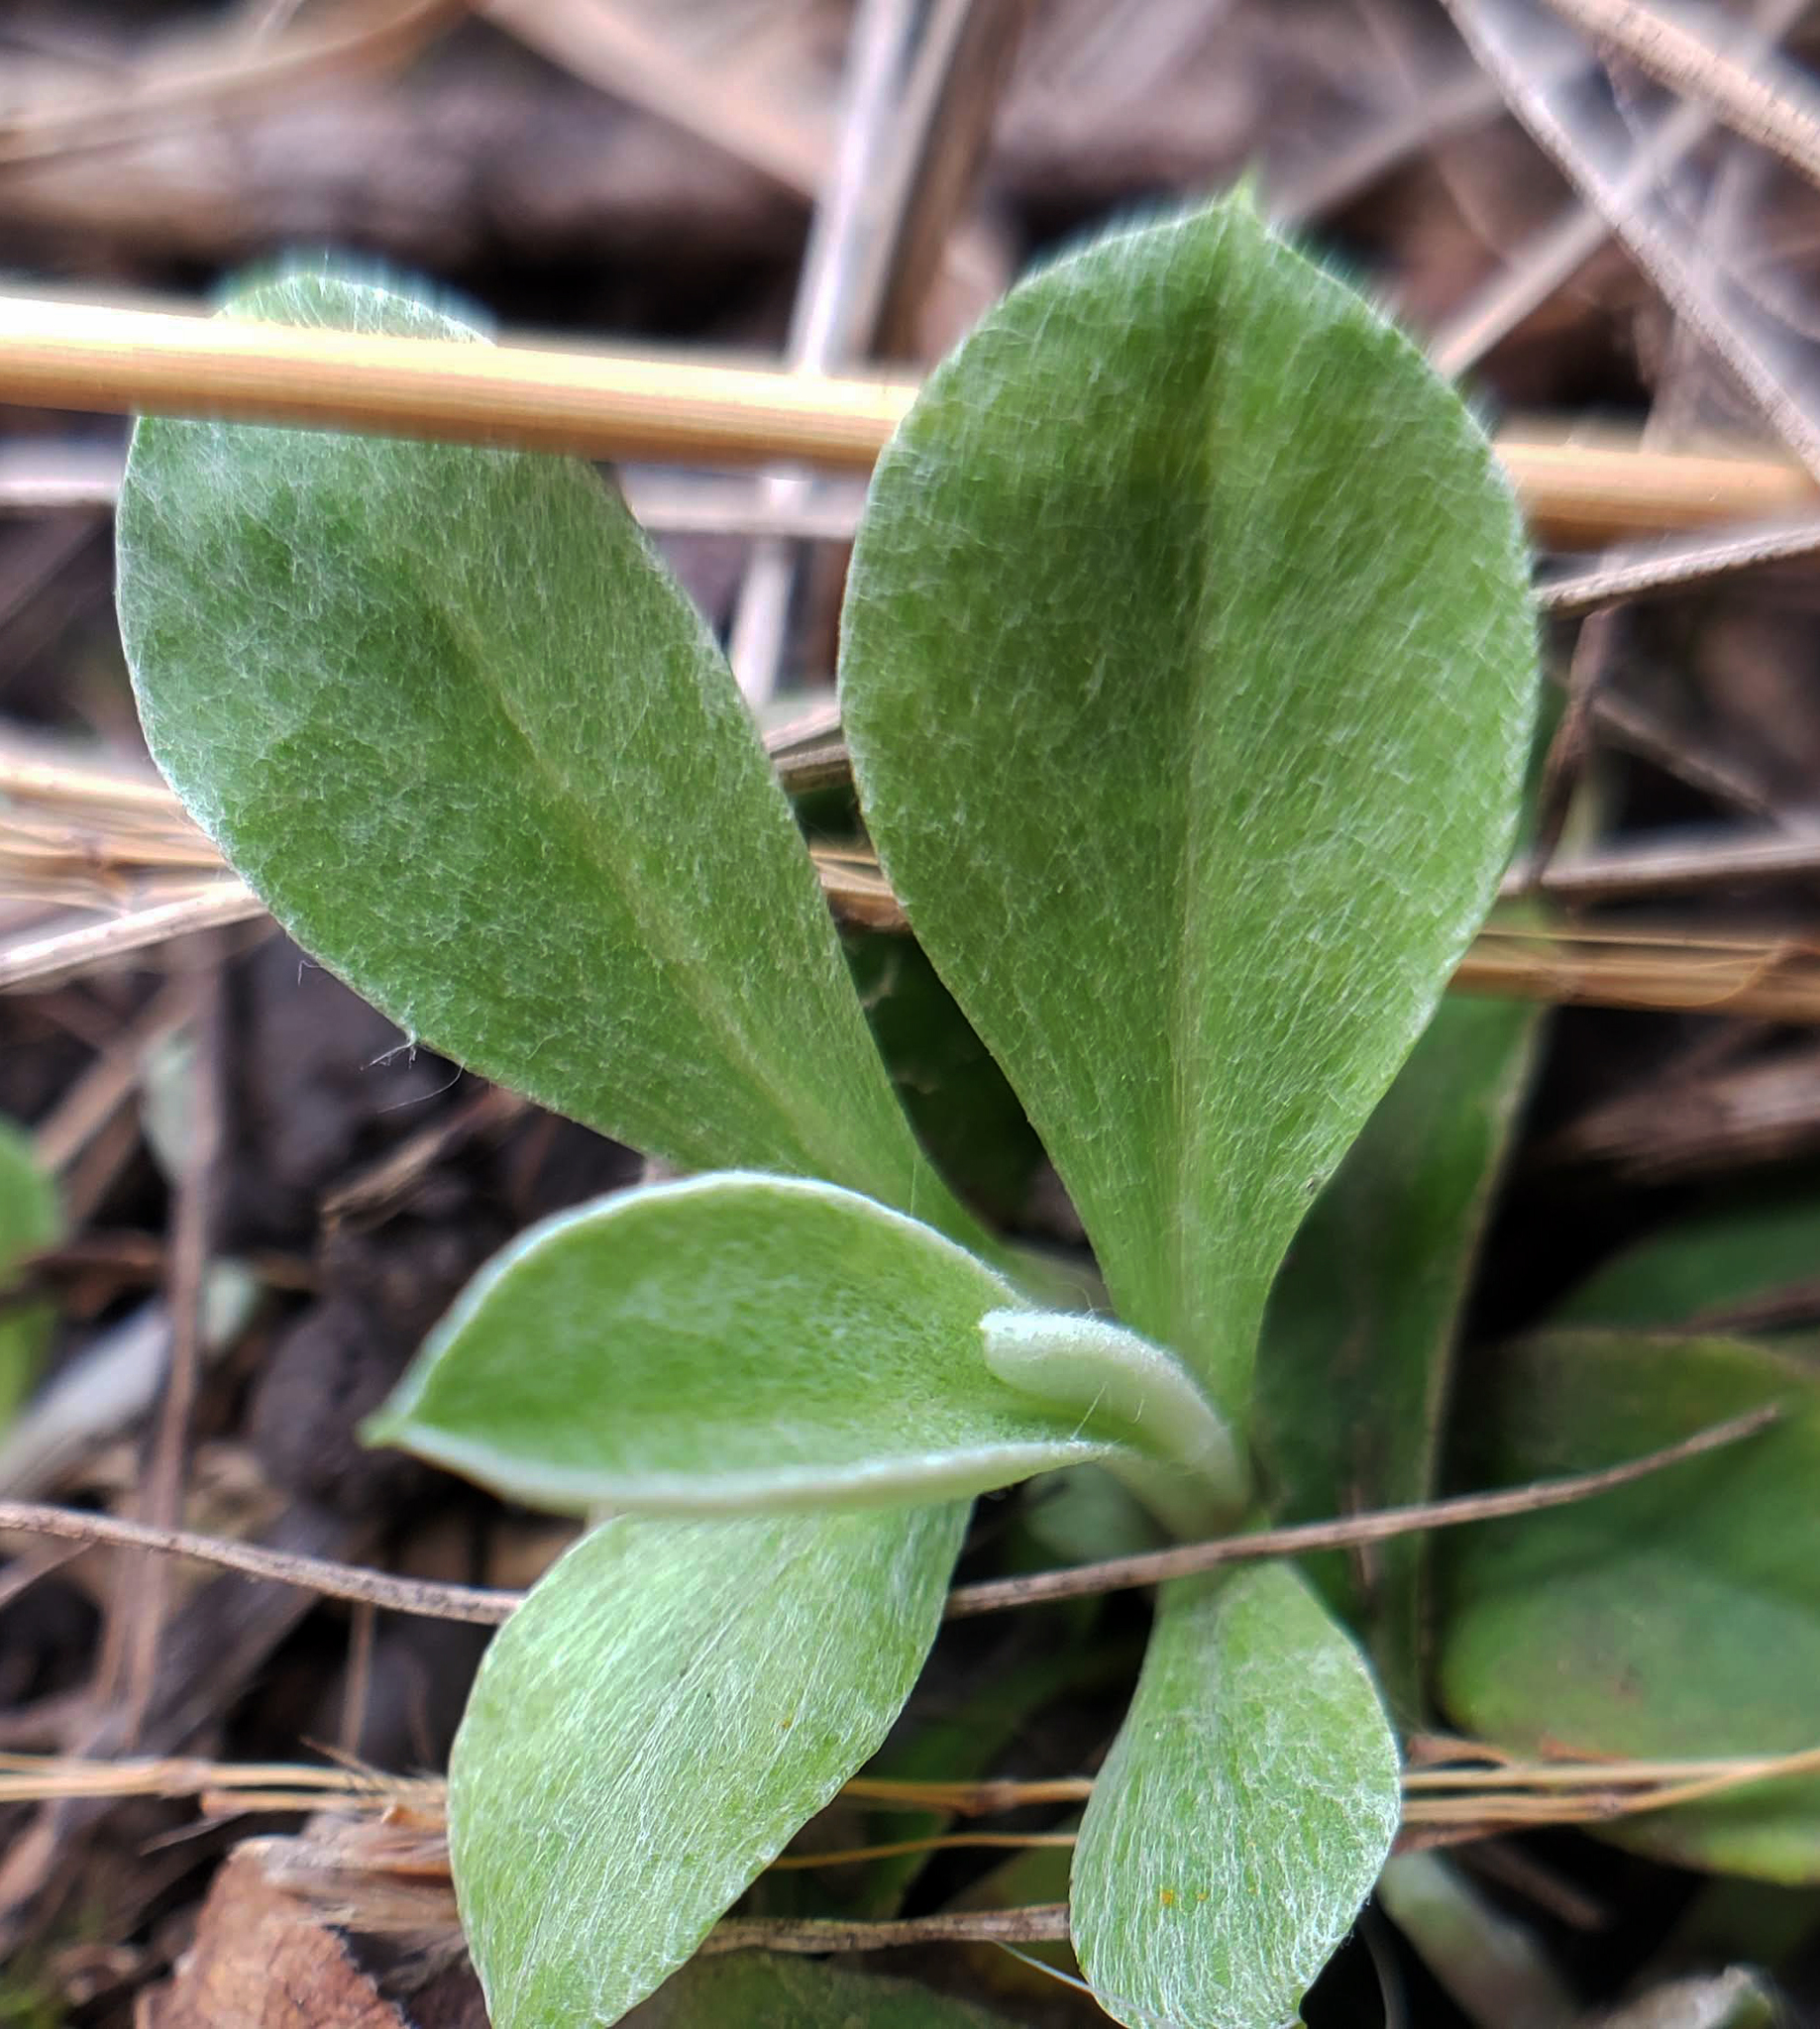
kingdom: Plantae
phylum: Tracheophyta
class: Magnoliopsida
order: Asterales
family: Asteraceae
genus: Antennaria
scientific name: Antennaria neglecta
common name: Field pussytoes
